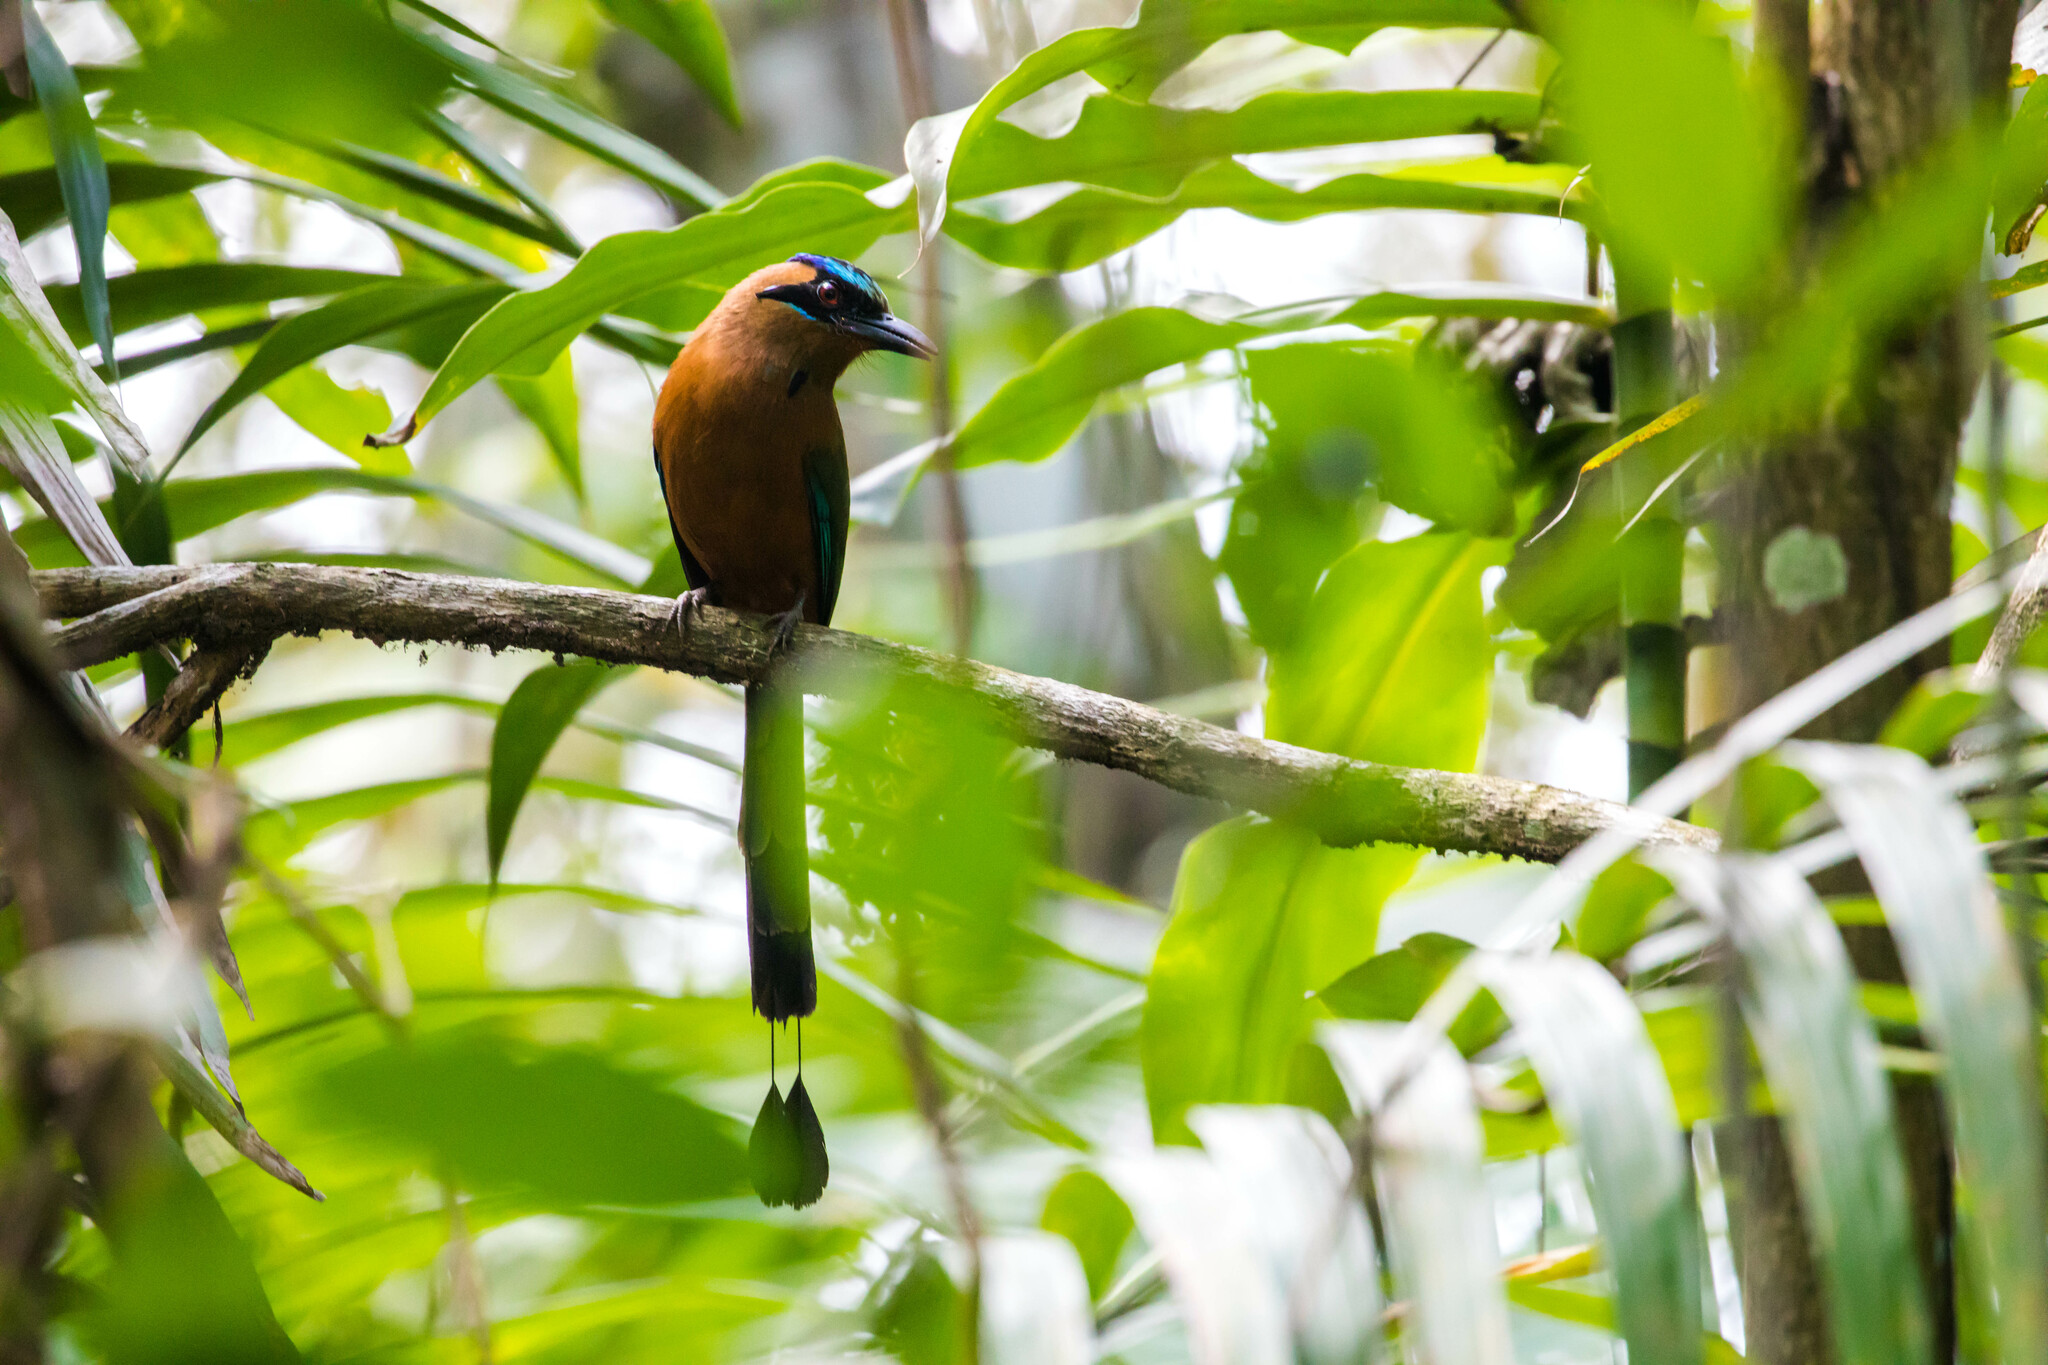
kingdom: Animalia
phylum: Chordata
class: Aves
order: Coraciiformes
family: Momotidae
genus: Momotus
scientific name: Momotus subrufescens
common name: Whooping motmot
